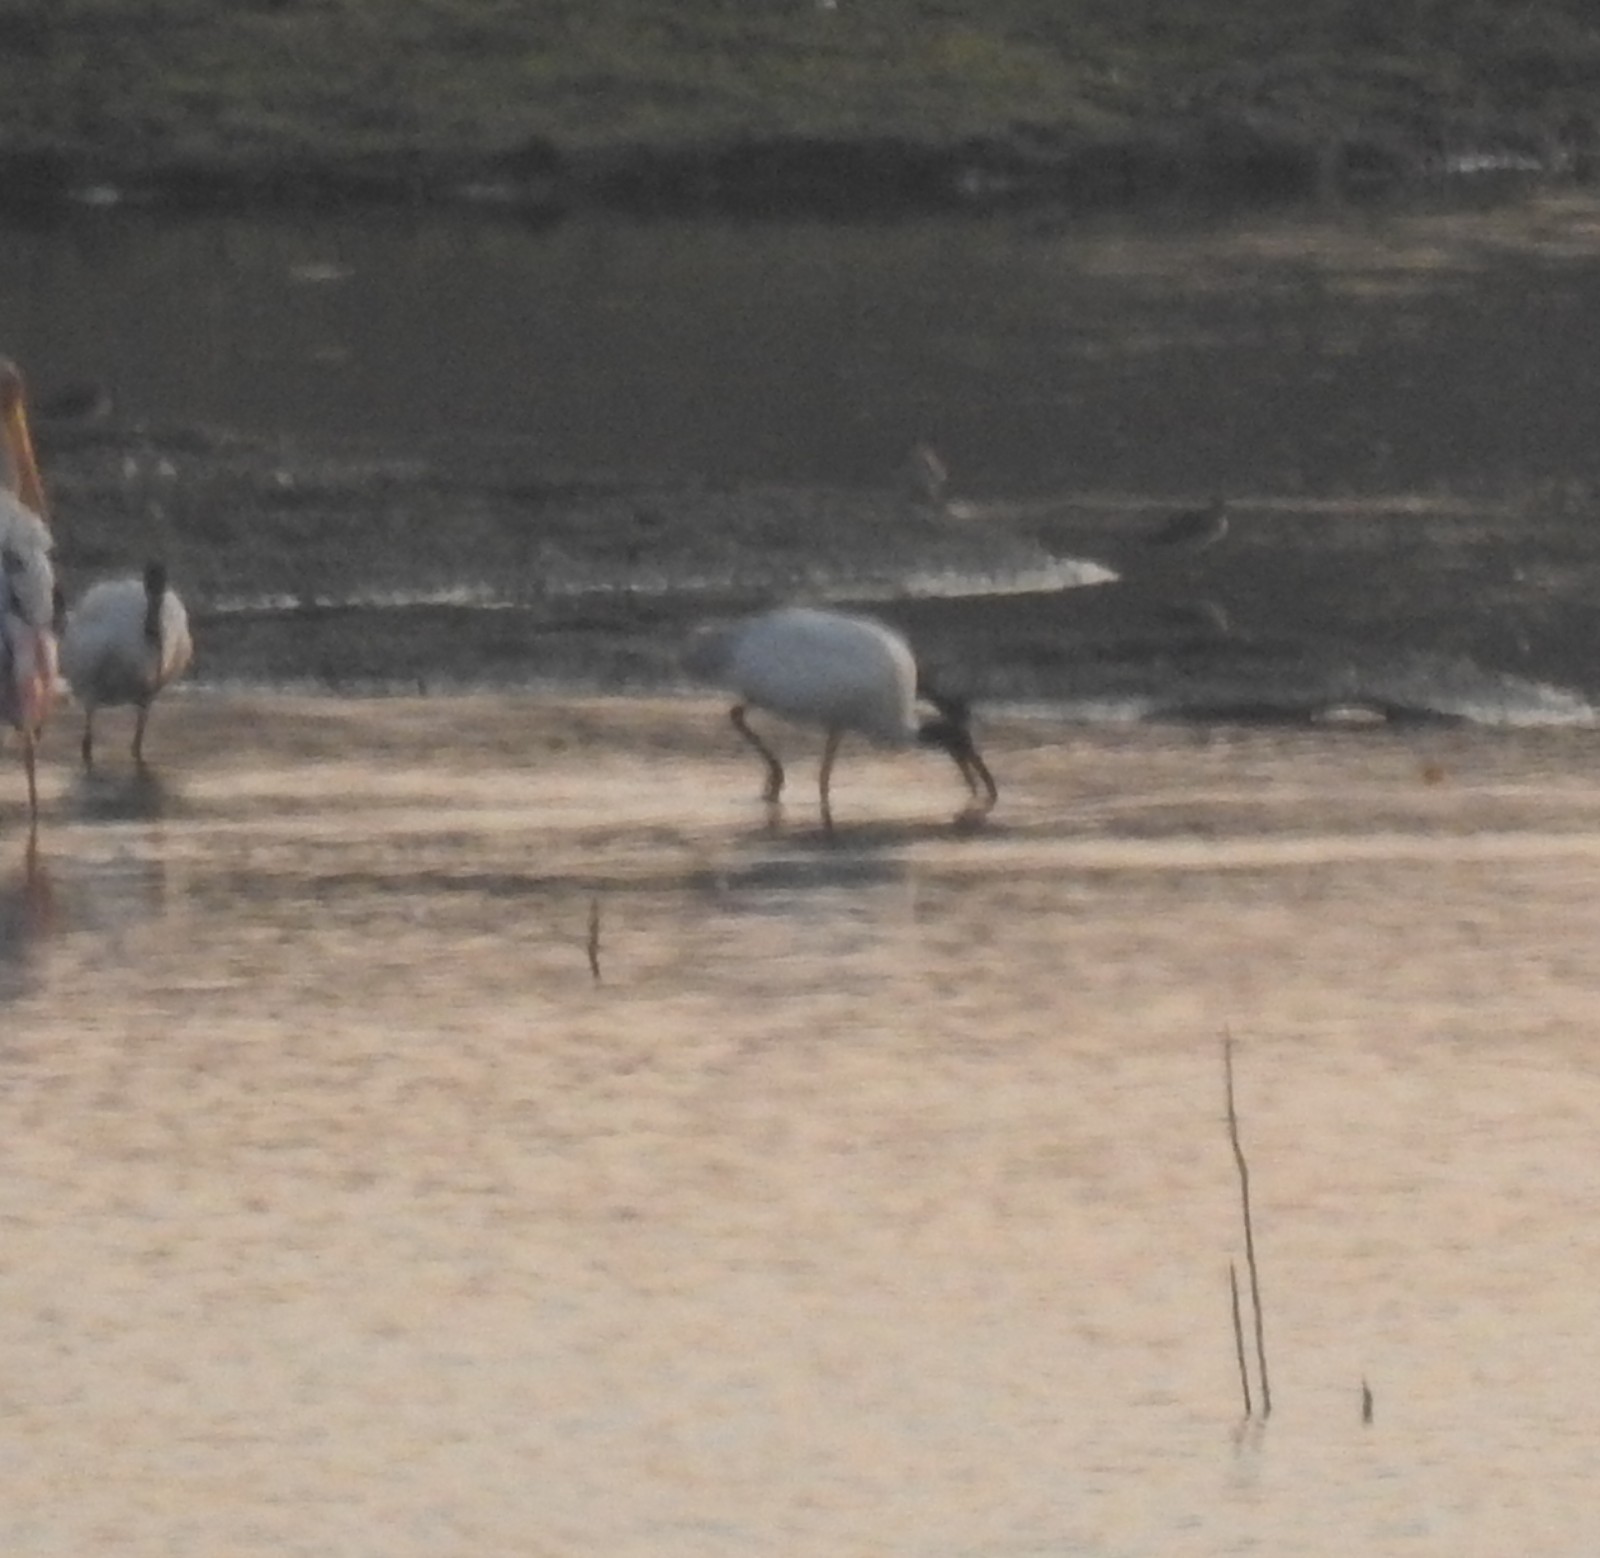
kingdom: Animalia
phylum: Chordata
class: Aves
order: Pelecaniformes
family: Threskiornithidae
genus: Threskiornis
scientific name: Threskiornis melanocephalus
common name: Black-headed ibis
